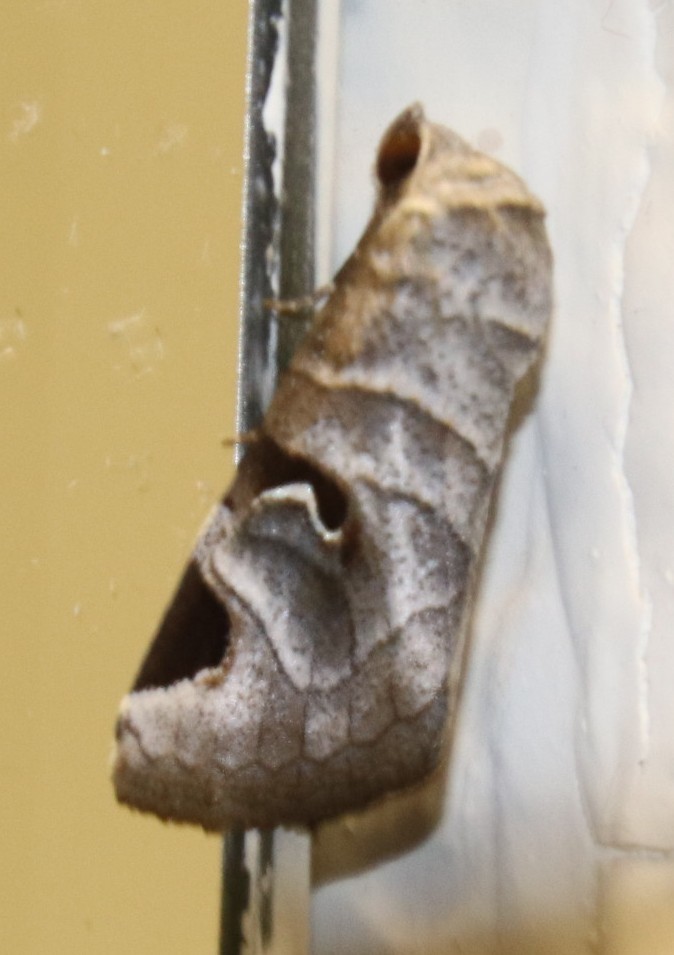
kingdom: Animalia
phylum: Arthropoda
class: Insecta
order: Lepidoptera
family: Erebidae
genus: Brevipecten
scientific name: Brevipecten cornuta
